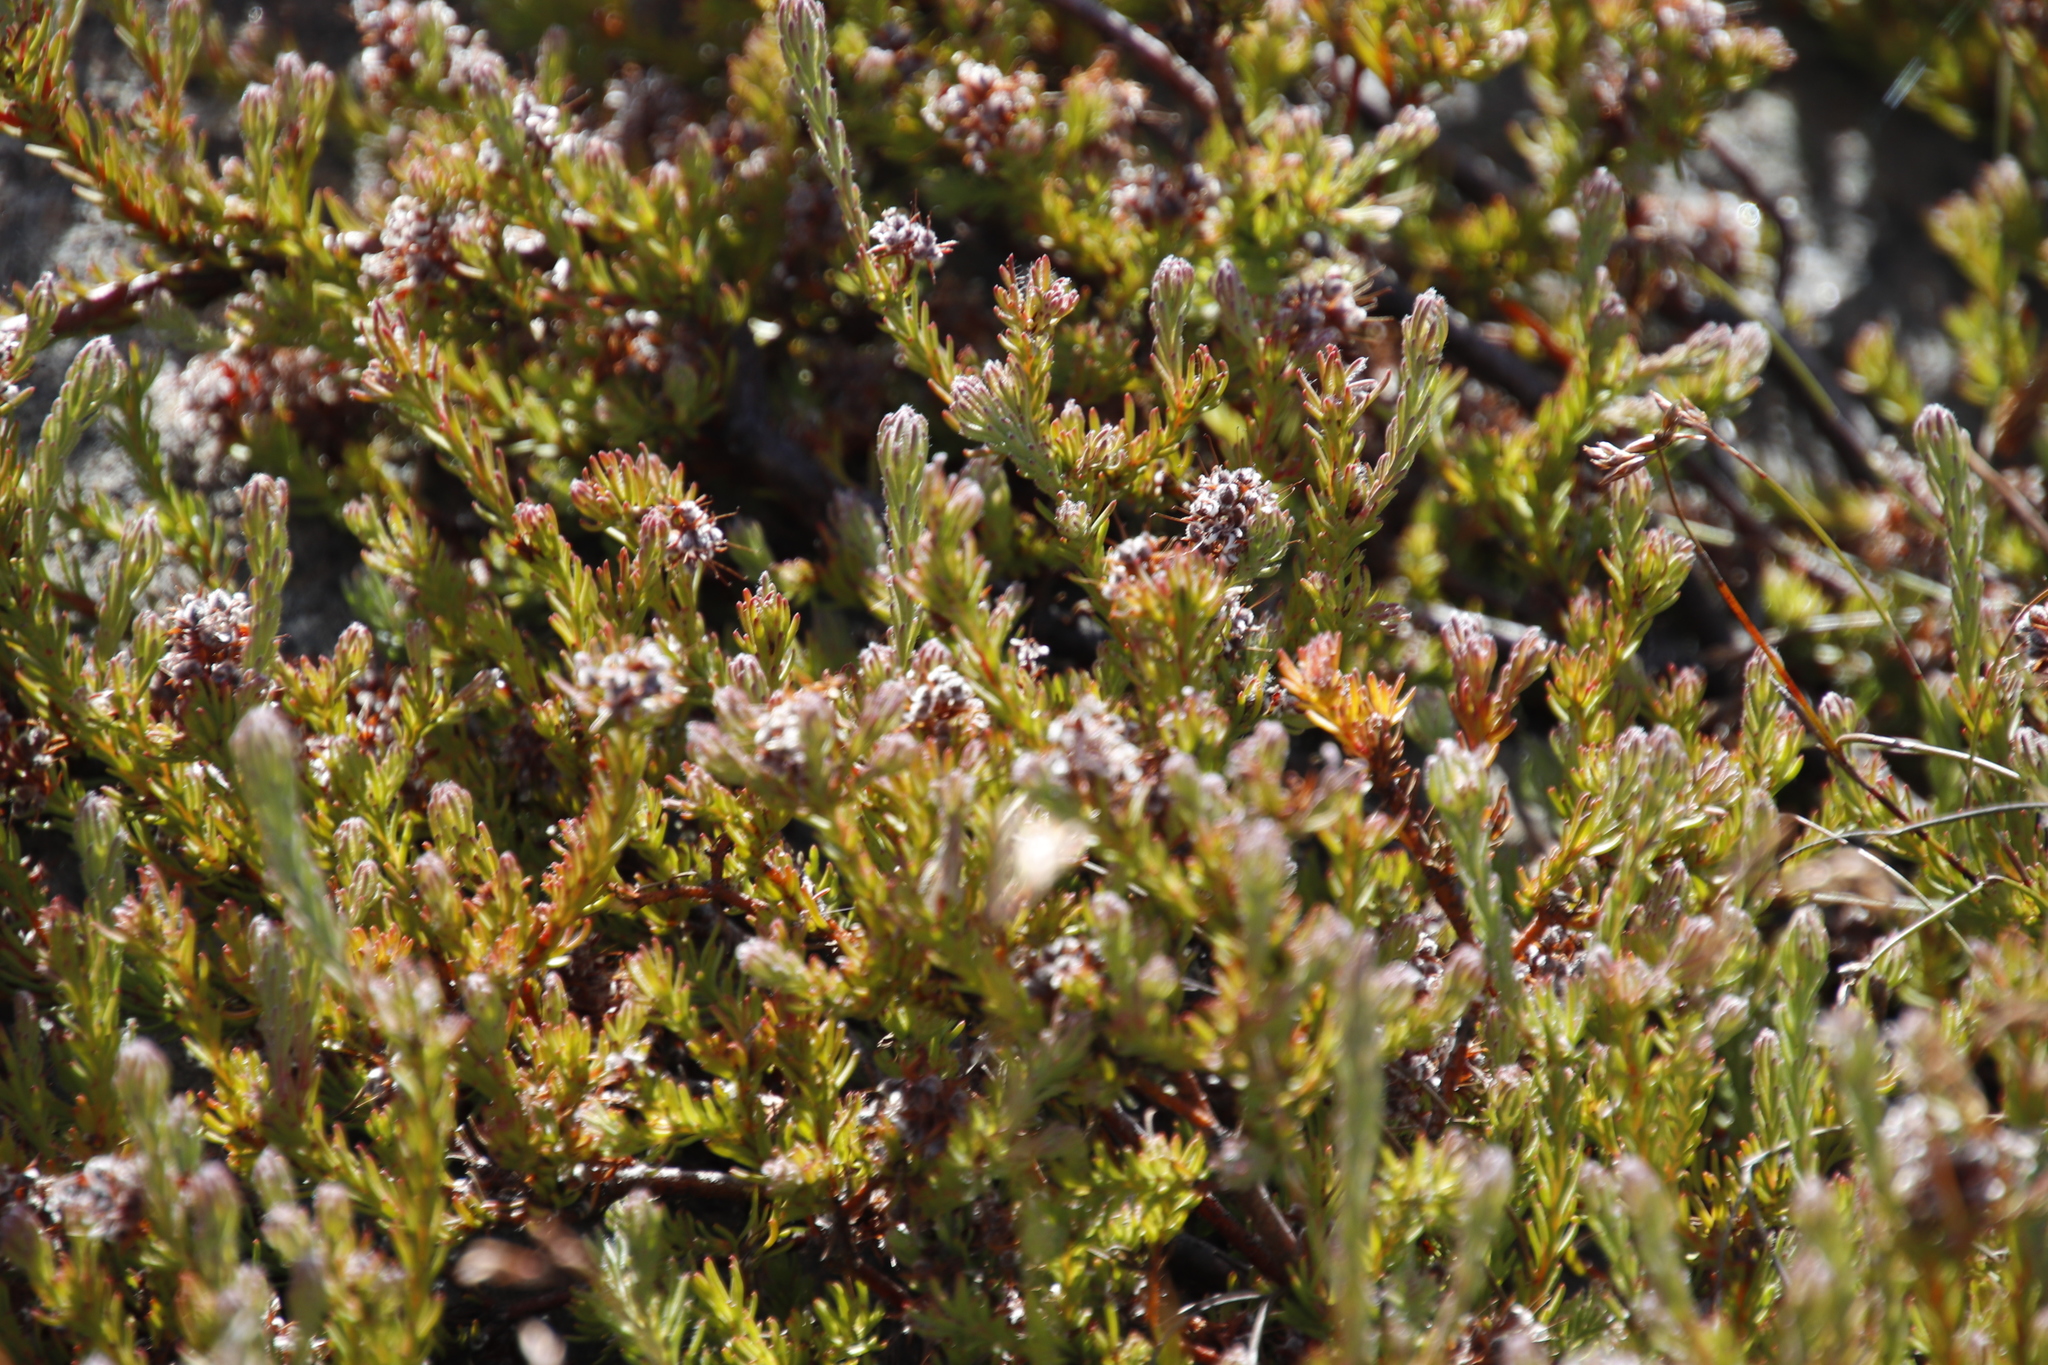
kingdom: Plantae
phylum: Tracheophyta
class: Magnoliopsida
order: Proteales
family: Proteaceae
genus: Spatalla
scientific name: Spatalla confusa
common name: Long-tube spoon
